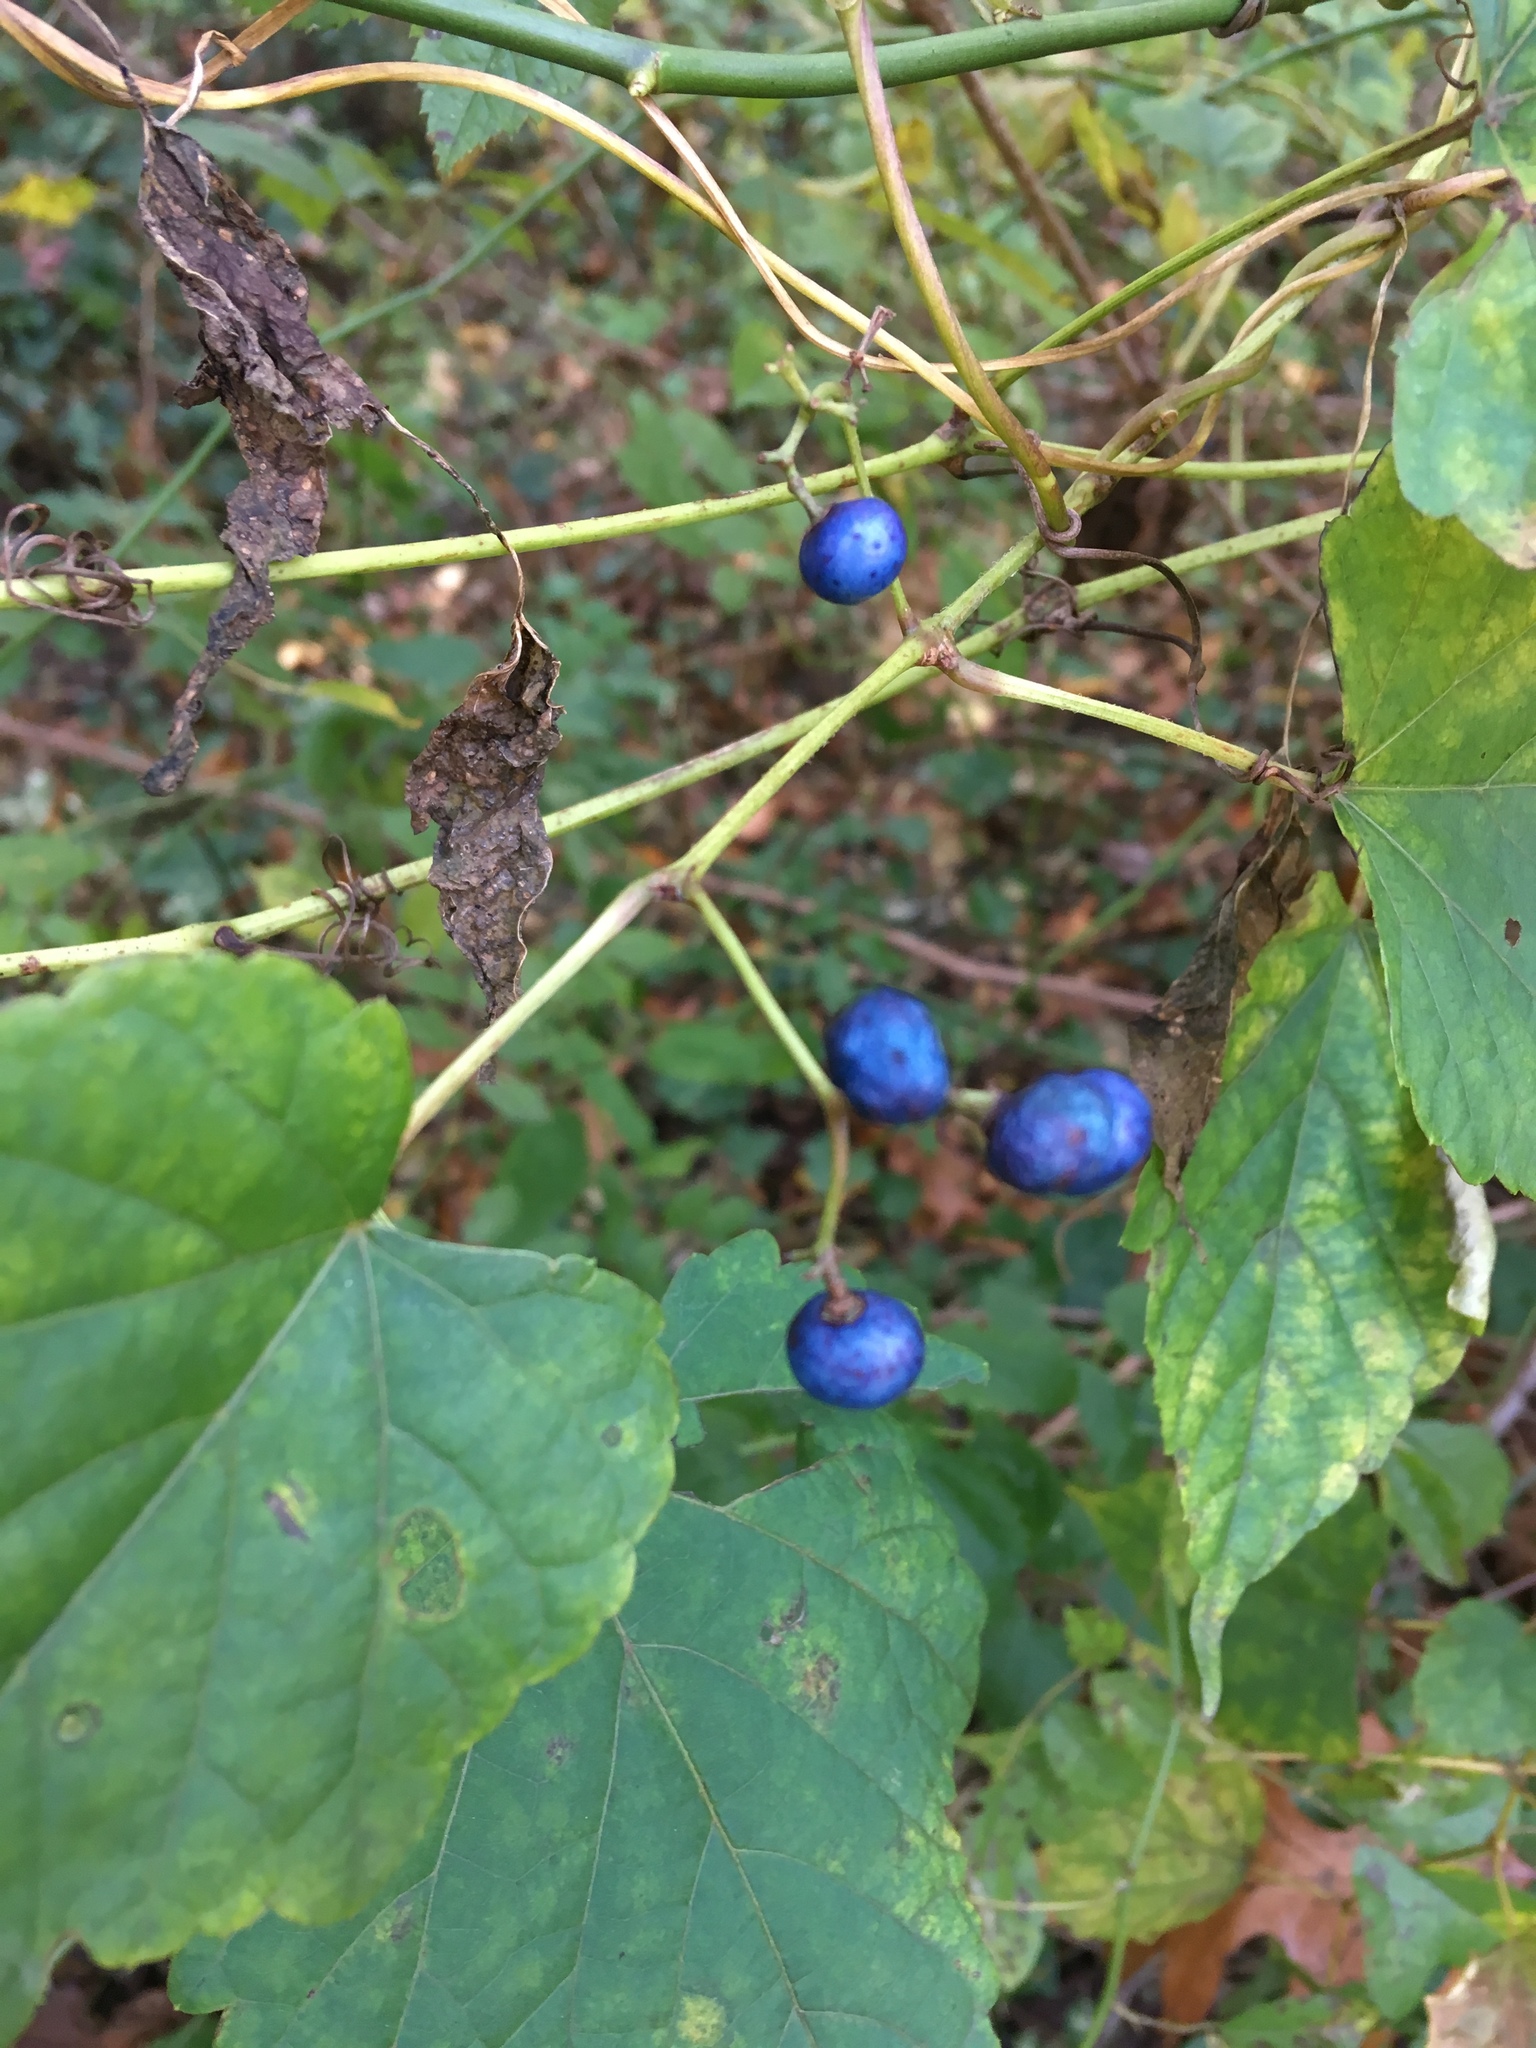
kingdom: Plantae
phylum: Tracheophyta
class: Magnoliopsida
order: Vitales
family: Vitaceae
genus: Ampelopsis
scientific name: Ampelopsis glandulosa
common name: Amur peppervine
